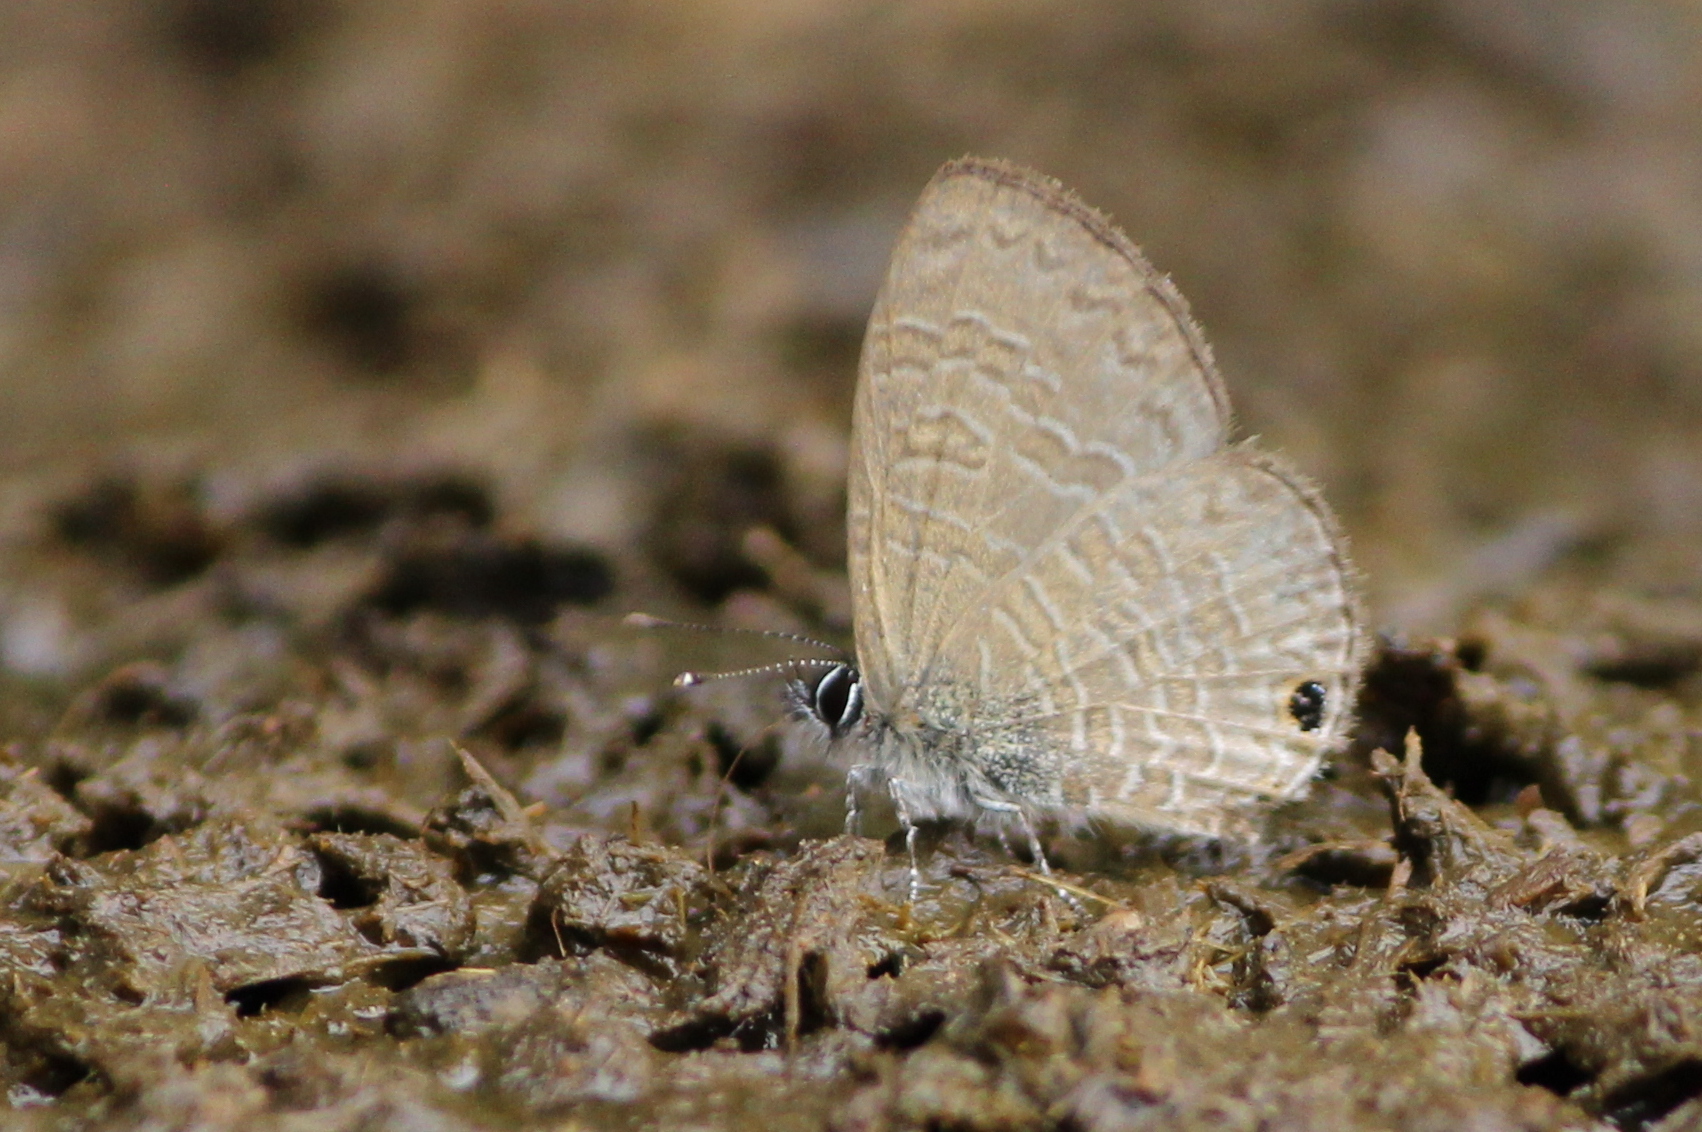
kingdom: Animalia
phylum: Arthropoda
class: Insecta
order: Lepidoptera
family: Lycaenidae
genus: Prosotas
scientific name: Prosotas dubiosa
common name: Tailless lineblue
